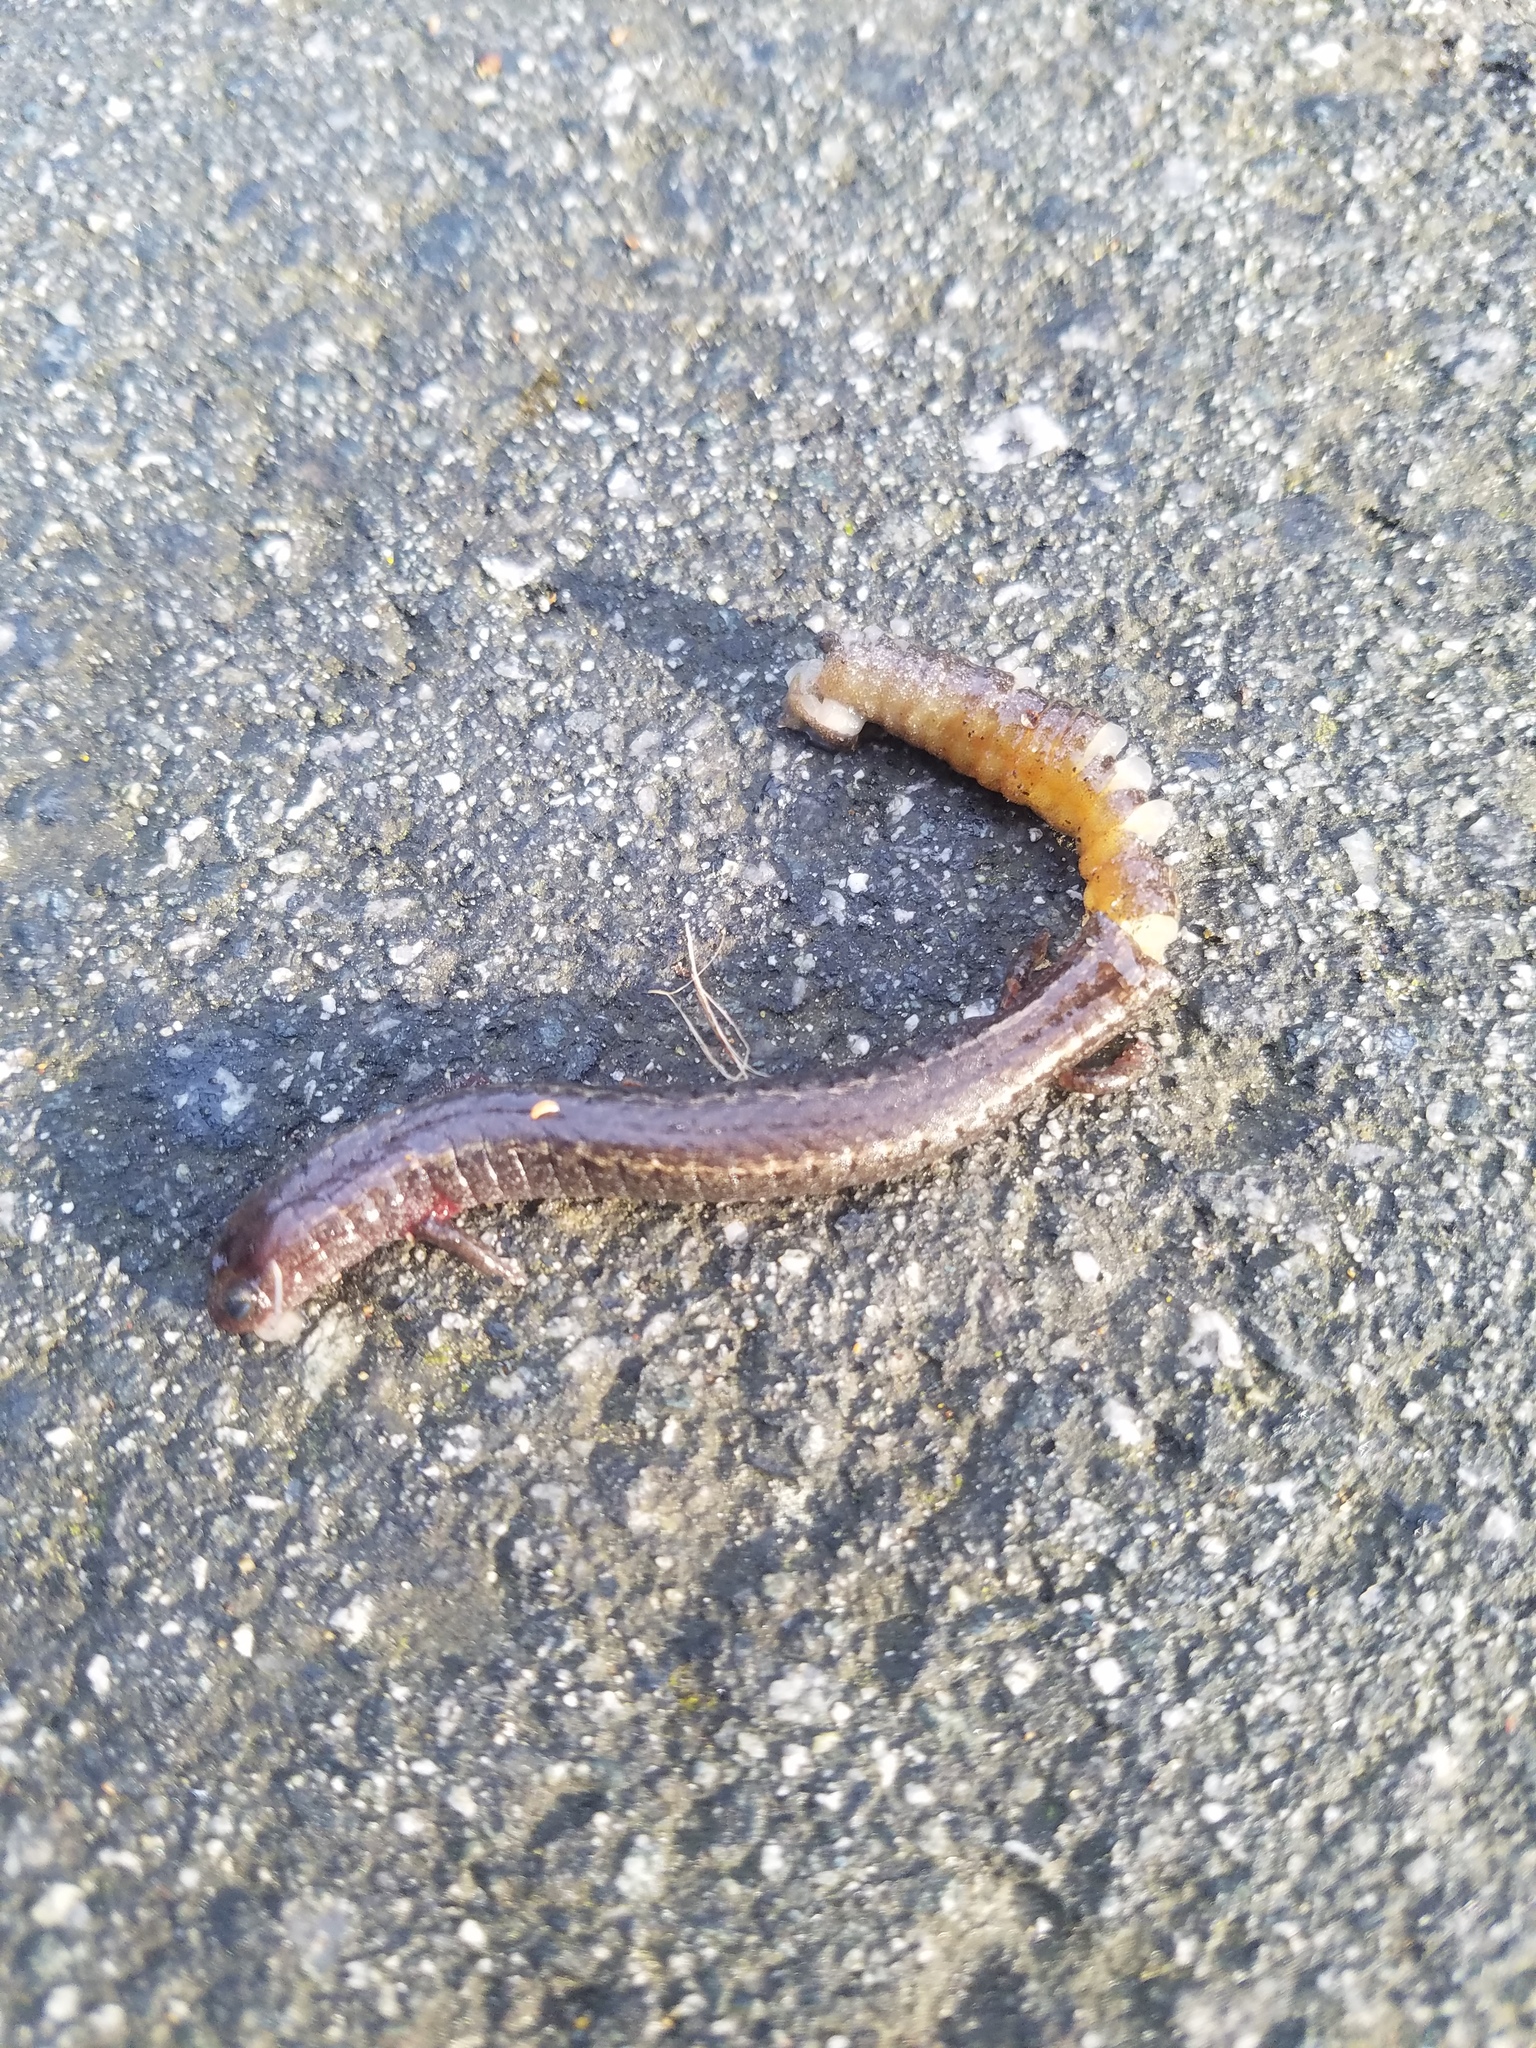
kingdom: Animalia
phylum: Chordata
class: Amphibia
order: Caudata
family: Plethodontidae
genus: Batrachoseps
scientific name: Batrachoseps attenuatus
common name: California slender salamander
